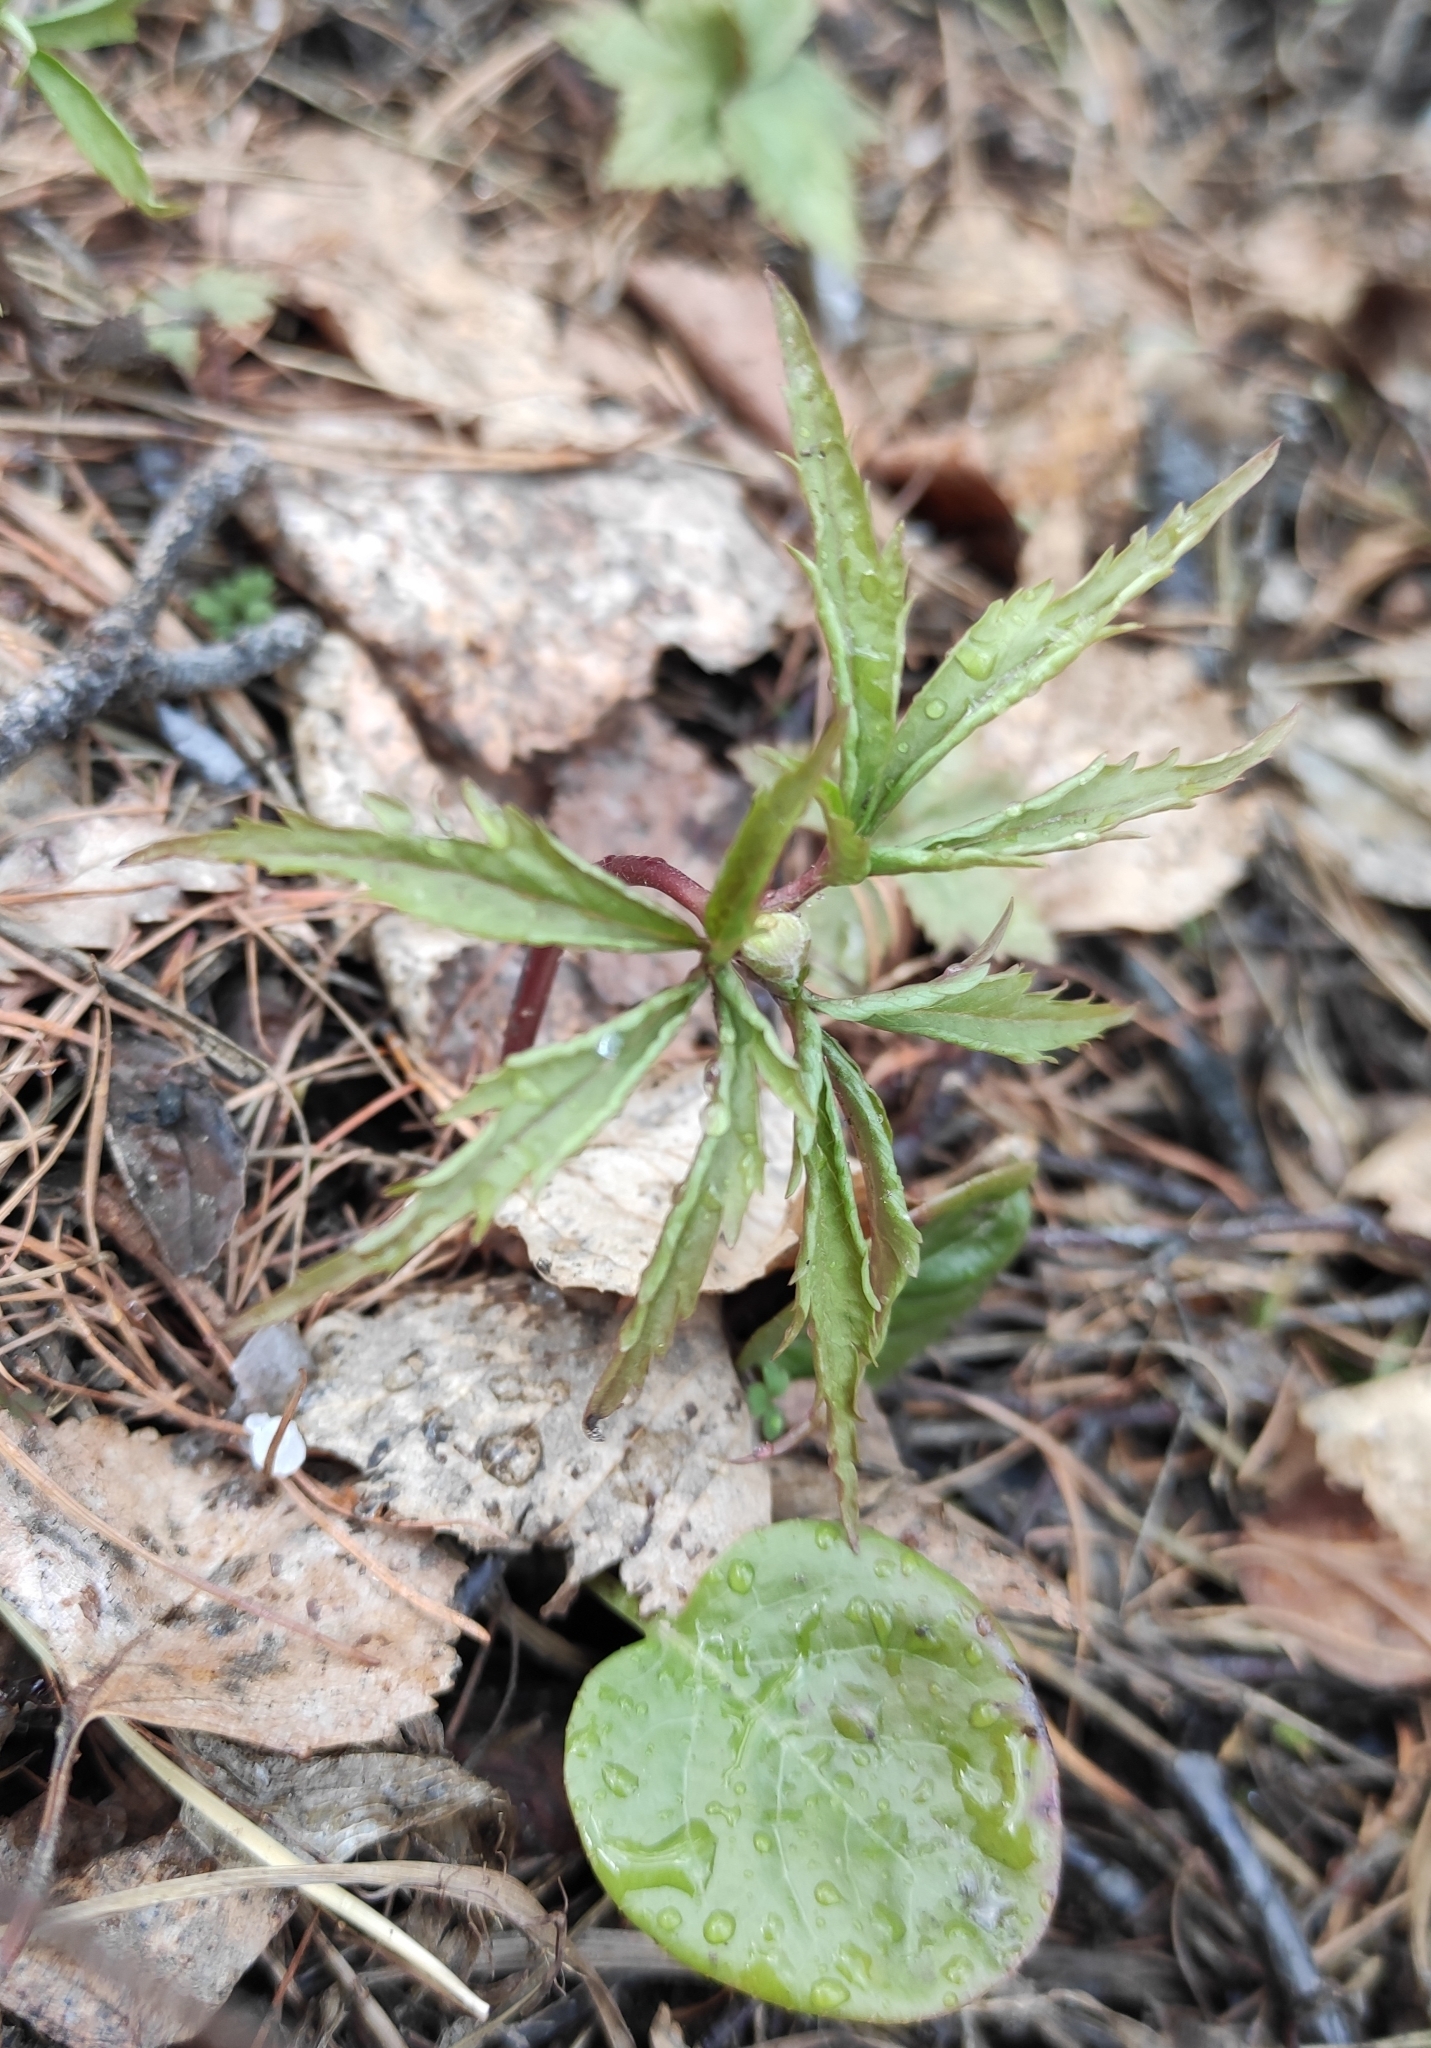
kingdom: Plantae
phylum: Tracheophyta
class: Magnoliopsida
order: Ranunculales
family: Ranunculaceae
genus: Anemone
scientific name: Anemone reflexa
